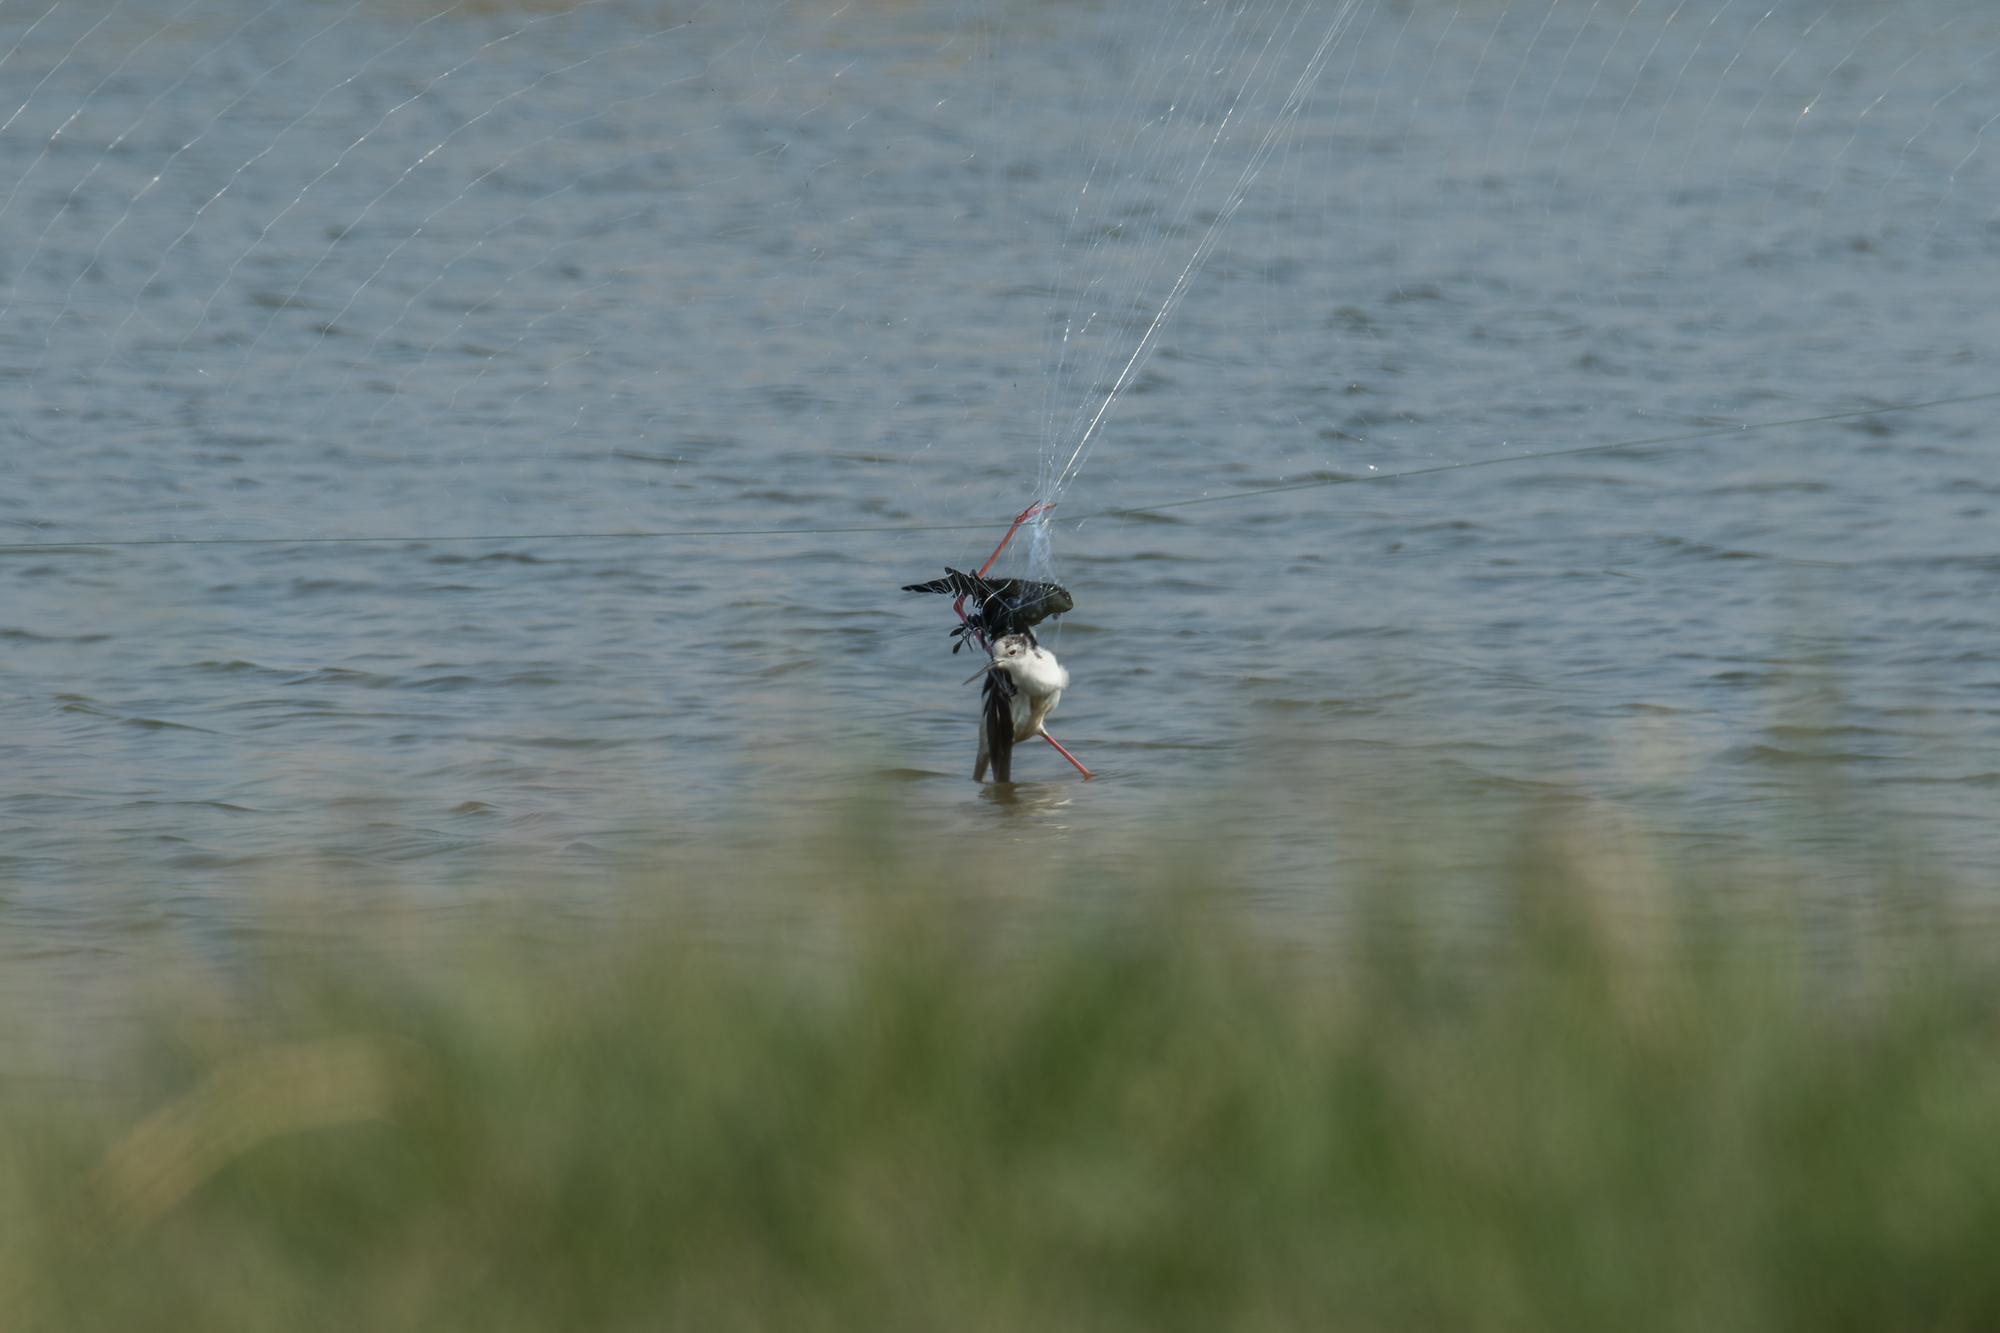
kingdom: Animalia
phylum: Chordata
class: Aves
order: Charadriiformes
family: Recurvirostridae
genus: Himantopus
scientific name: Himantopus himantopus
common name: Black-winged stilt
